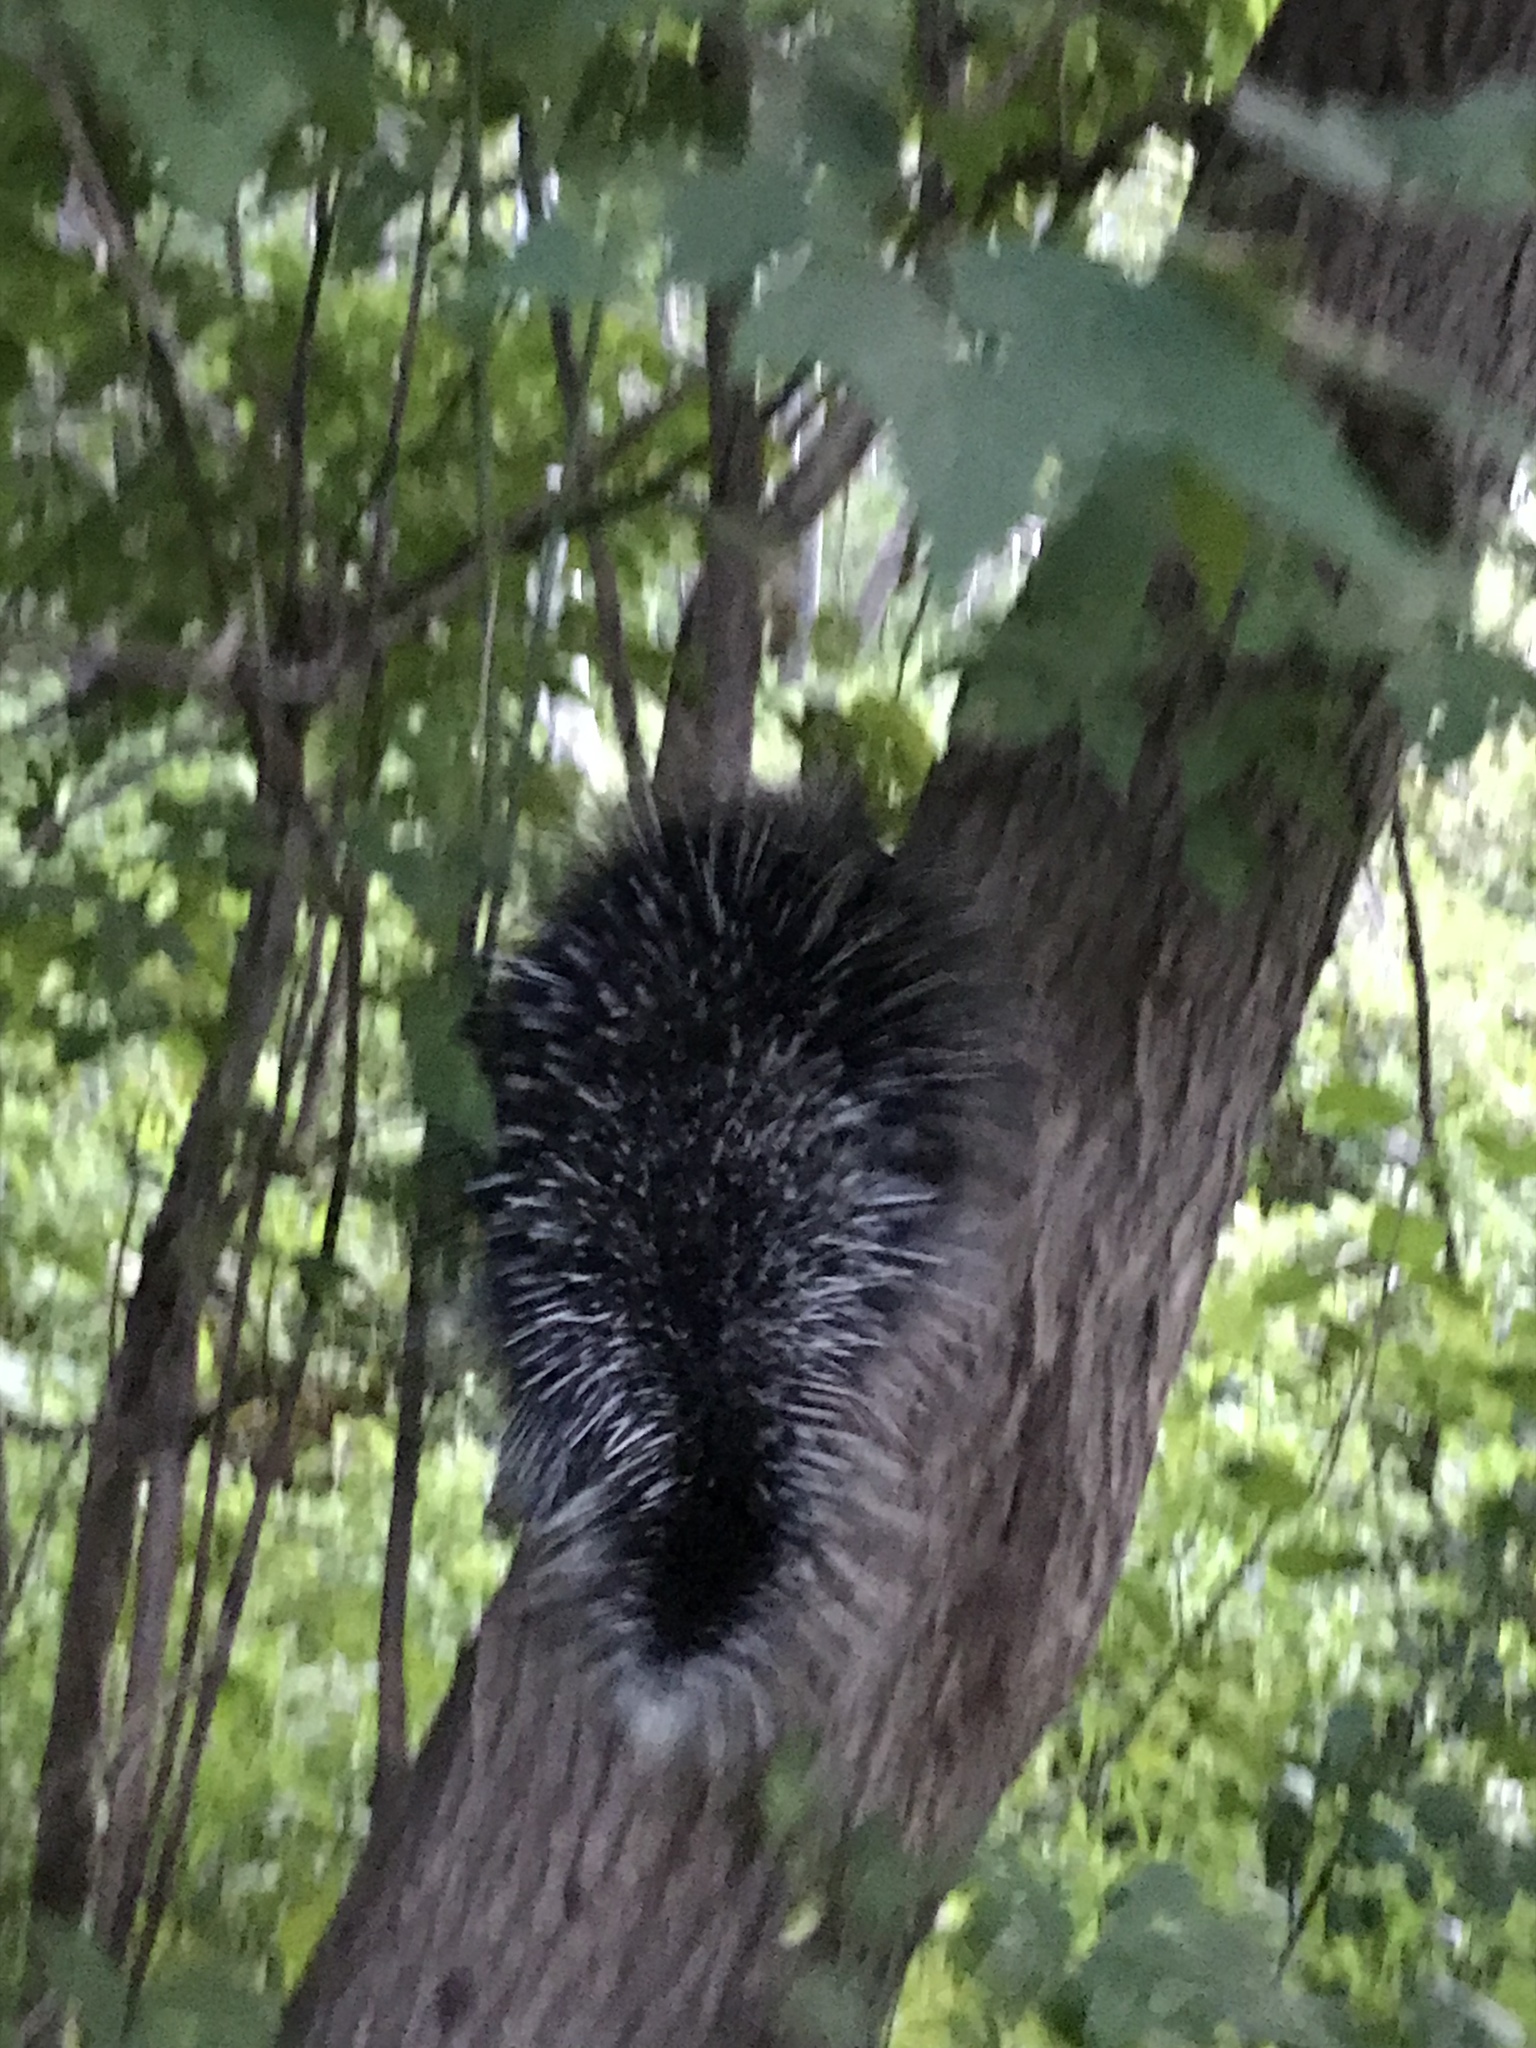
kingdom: Animalia
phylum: Chordata
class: Mammalia
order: Rodentia
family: Erethizontidae
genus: Erethizon
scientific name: Erethizon dorsatus
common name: North american porcupine
